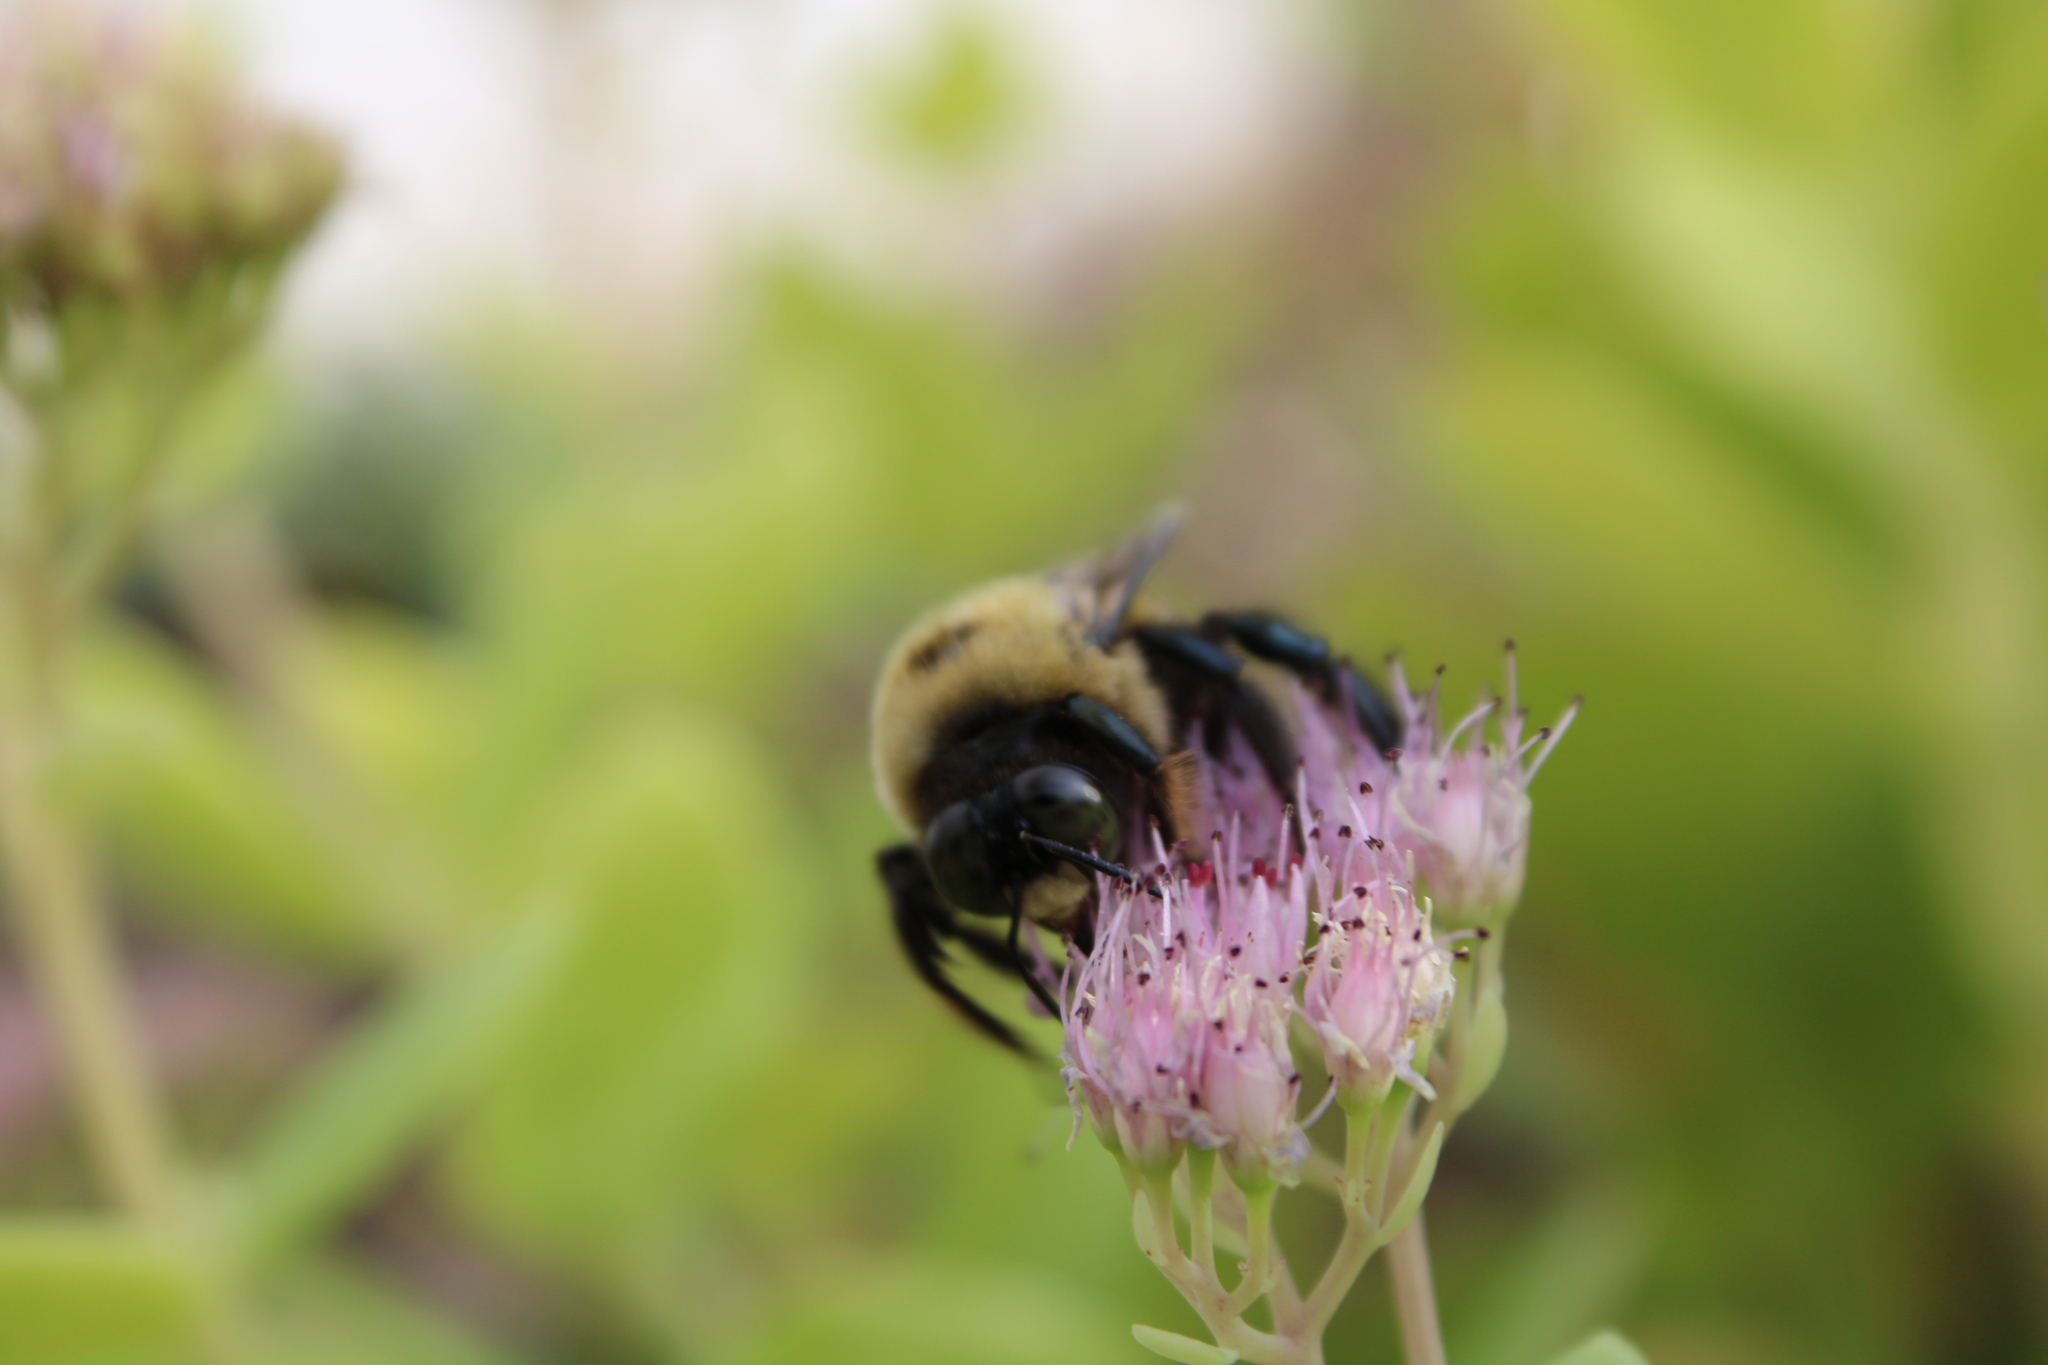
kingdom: Animalia
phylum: Arthropoda
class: Insecta
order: Hymenoptera
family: Apidae
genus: Xylocopa
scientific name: Xylocopa virginica
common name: Carpenter bee
